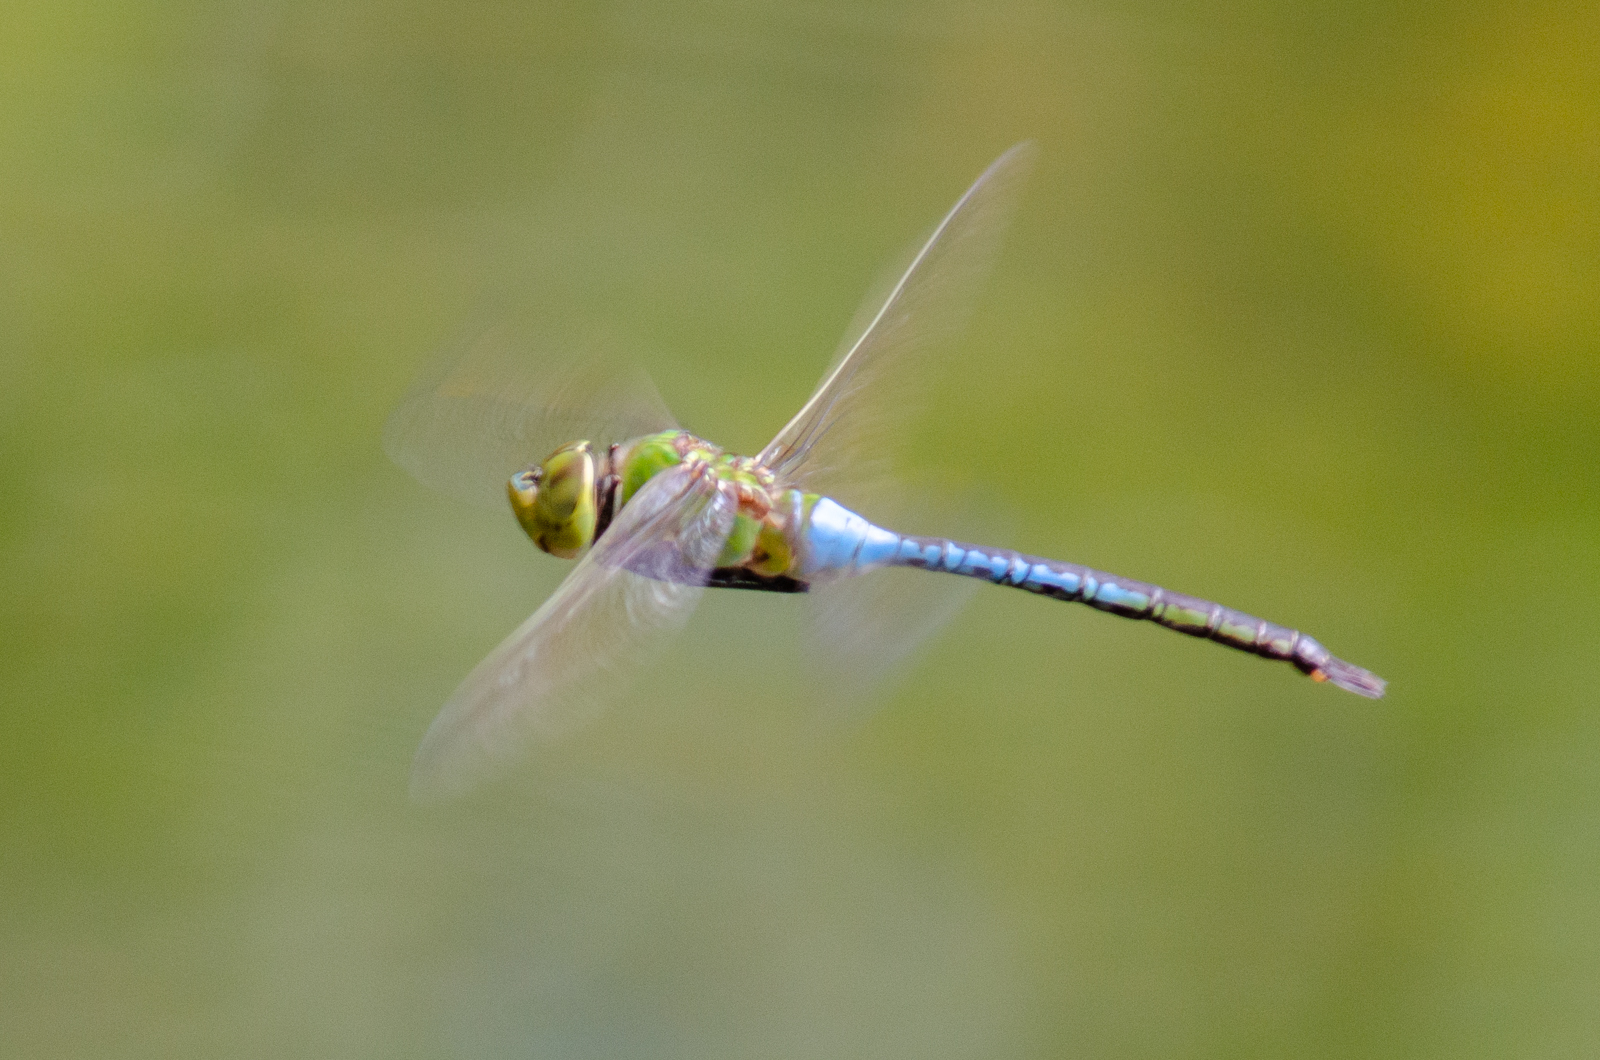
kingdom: Animalia
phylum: Arthropoda
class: Insecta
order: Odonata
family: Aeshnidae
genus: Anax
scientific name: Anax junius
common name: Common green darner
